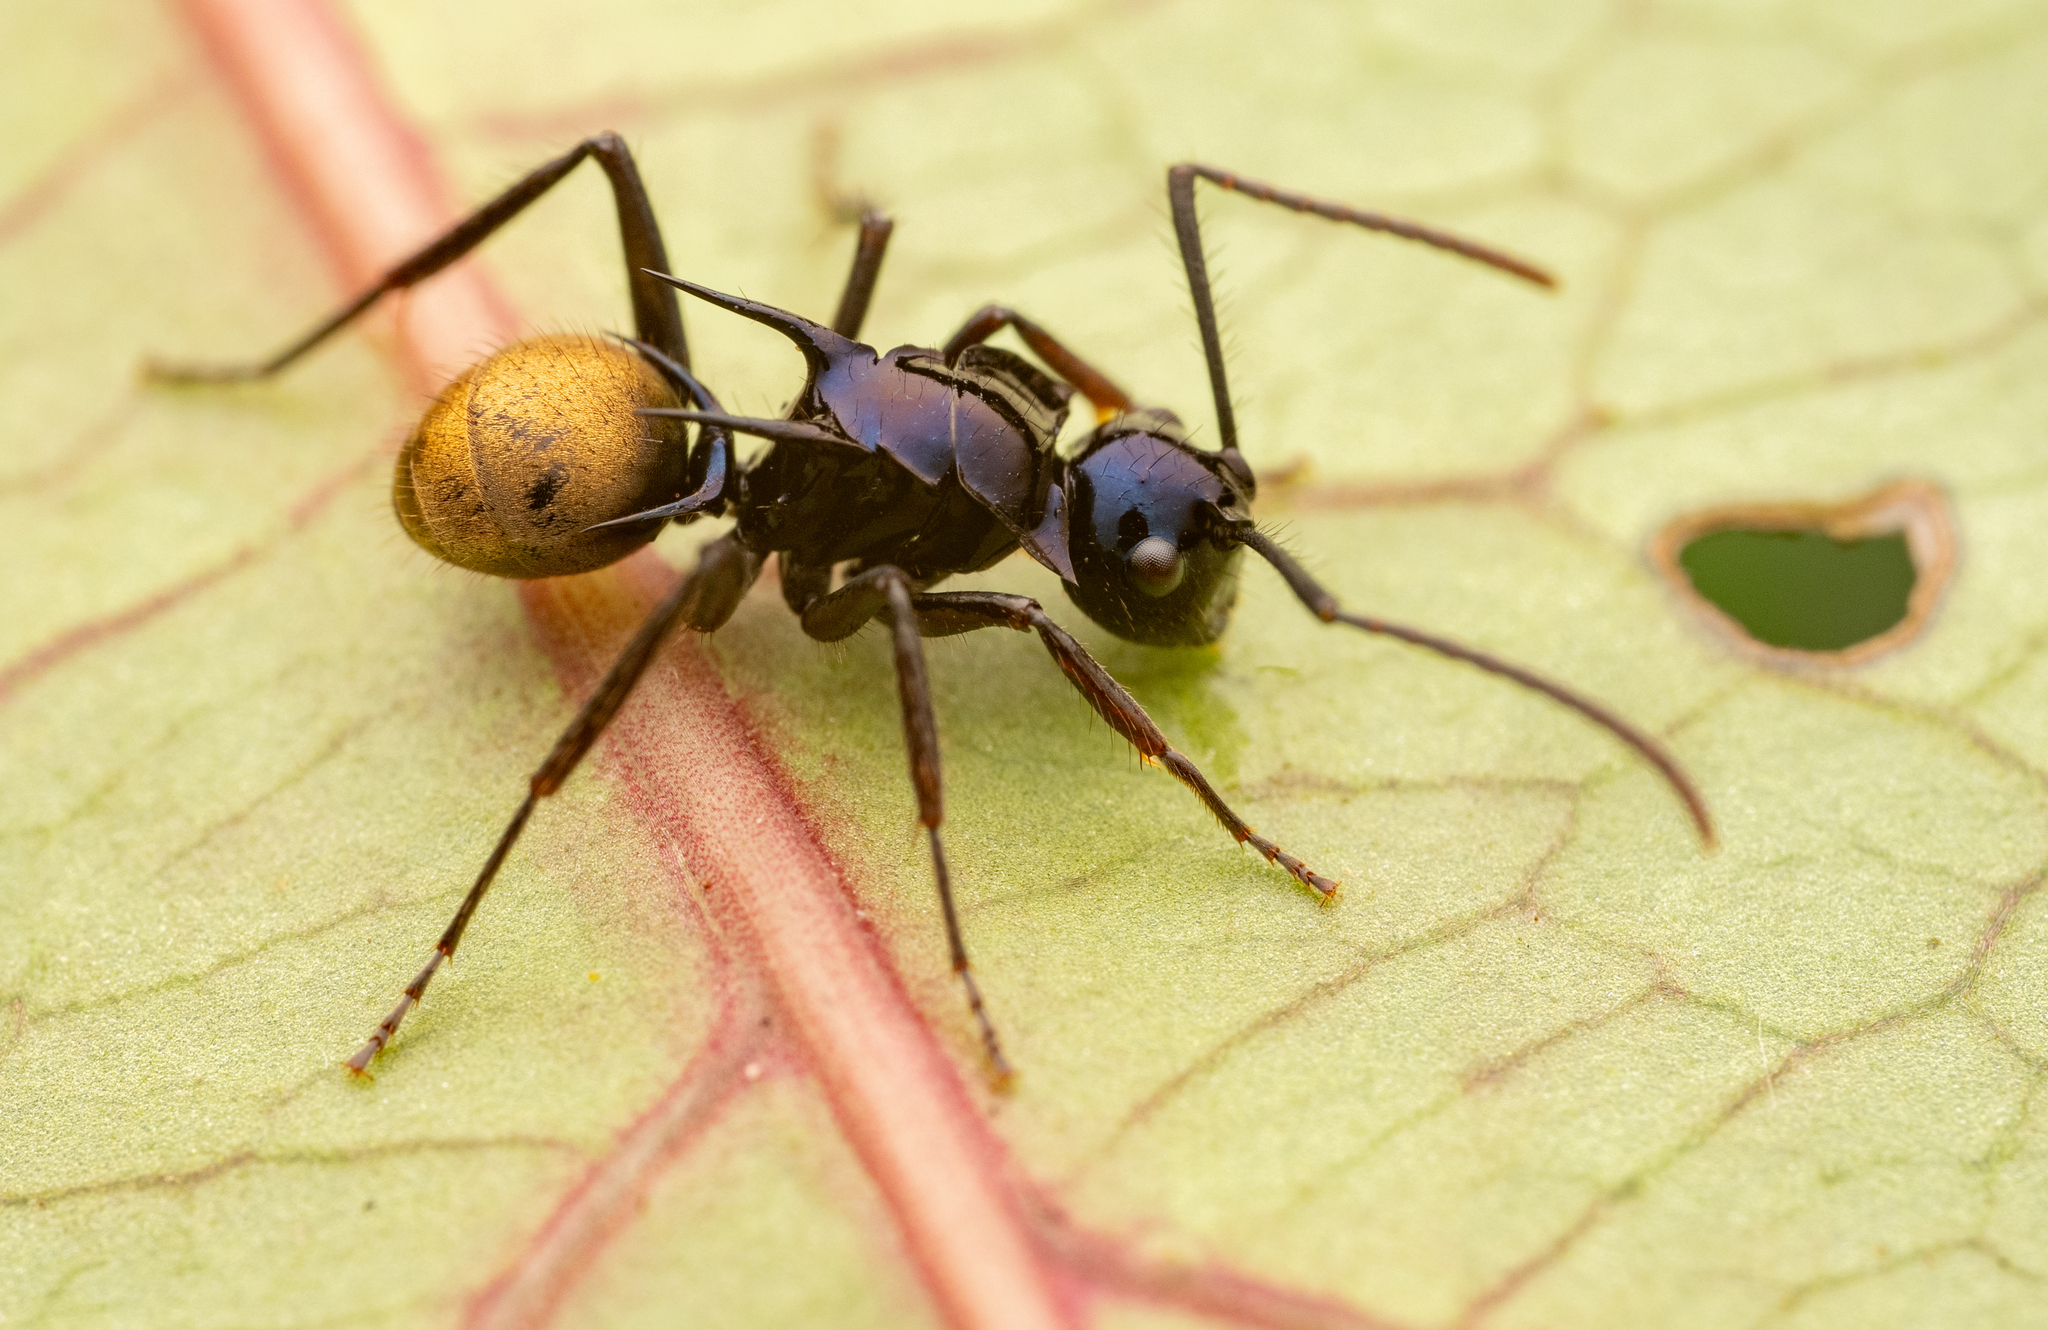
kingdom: Animalia
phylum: Arthropoda
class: Insecta
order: Hymenoptera
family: Formicidae
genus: Polyrhachis
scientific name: Polyrhachis loriai
